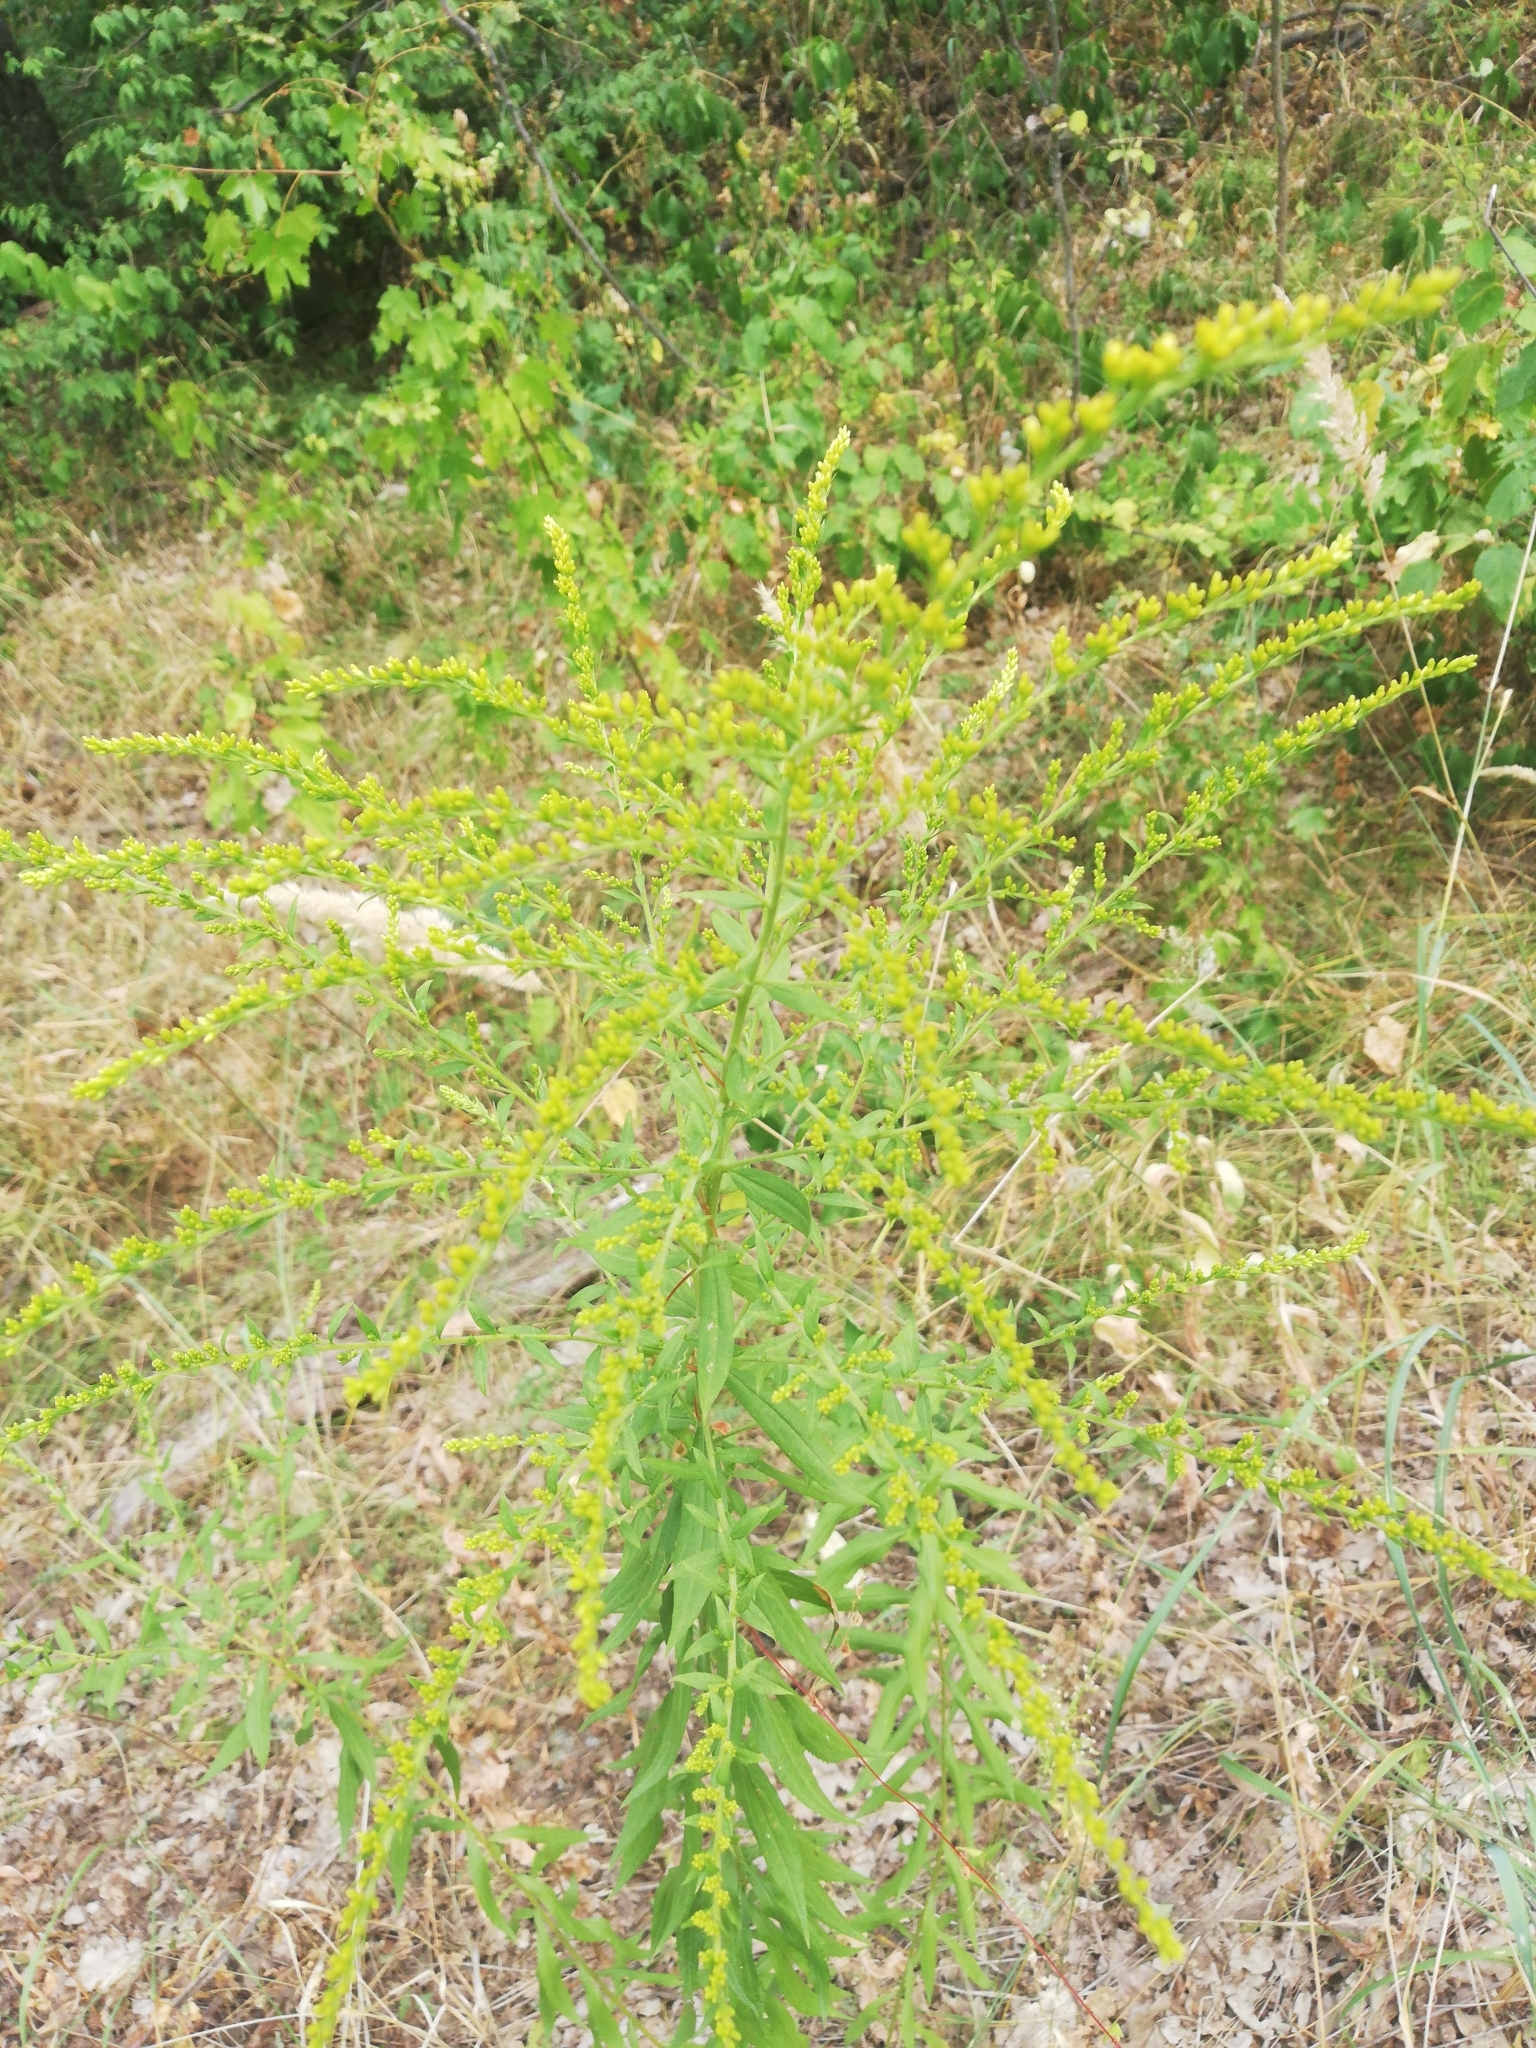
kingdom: Plantae
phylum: Tracheophyta
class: Magnoliopsida
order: Asterales
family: Asteraceae
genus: Solidago
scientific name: Solidago canadensis
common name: Canada goldenrod
